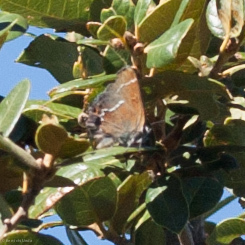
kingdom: Animalia
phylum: Arthropoda
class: Insecta
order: Lepidoptera
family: Lycaenidae
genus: Mitoura
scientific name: Mitoura spinetorum
